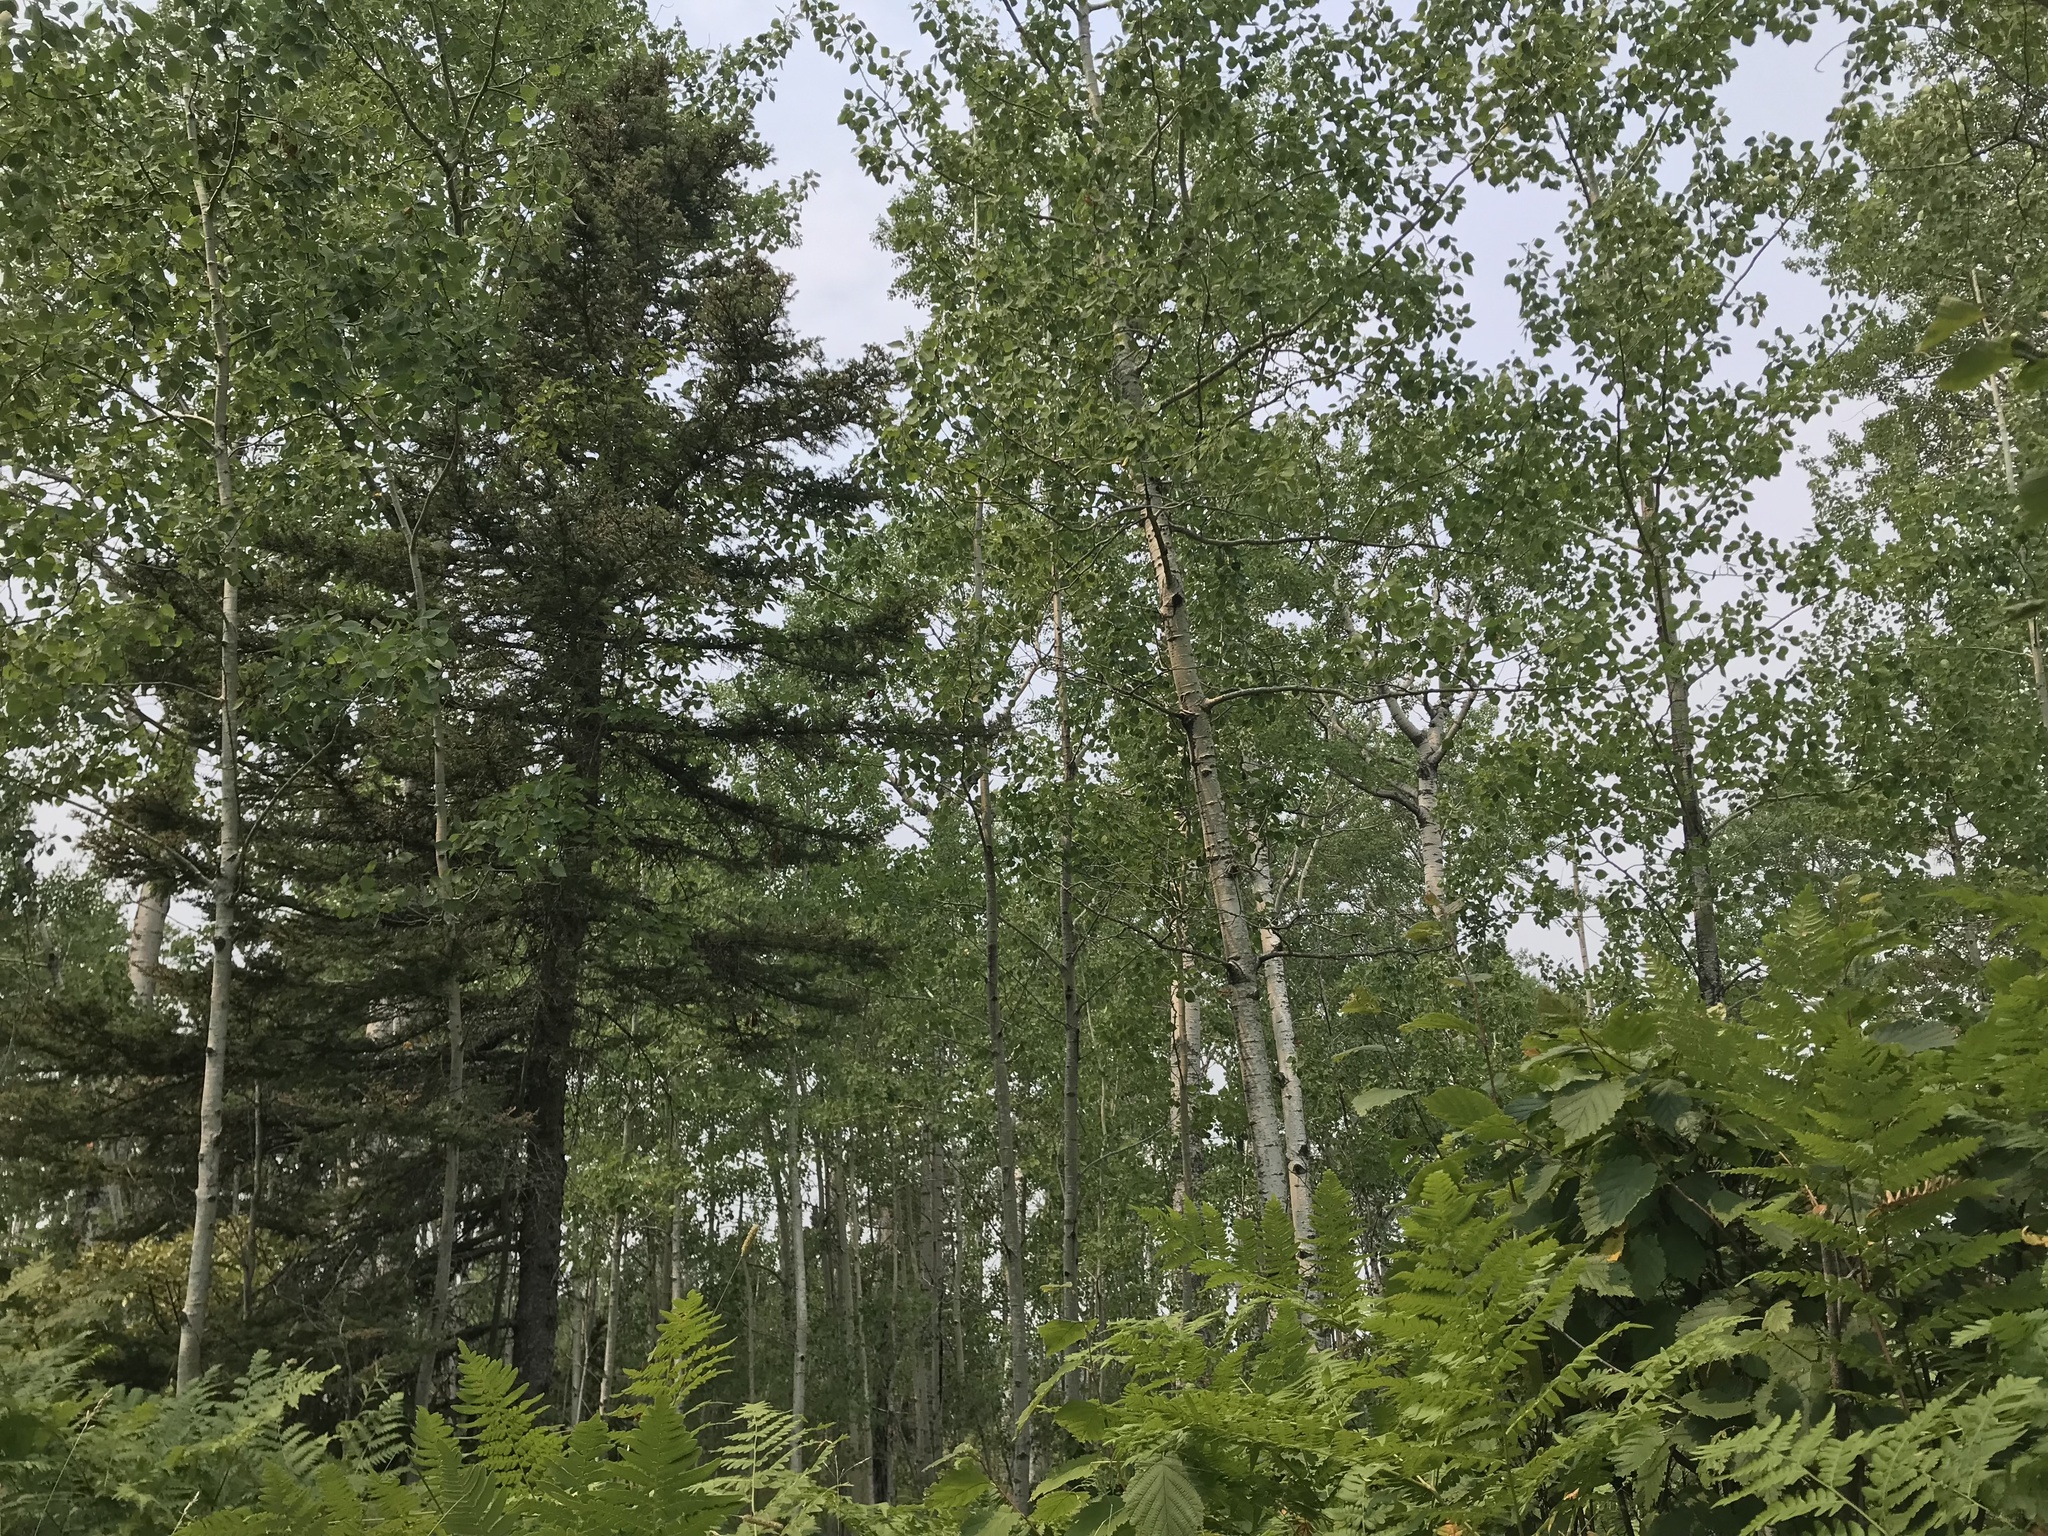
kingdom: Plantae
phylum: Tracheophyta
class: Magnoliopsida
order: Malpighiales
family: Salicaceae
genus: Populus
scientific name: Populus tremuloides
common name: Quaking aspen
